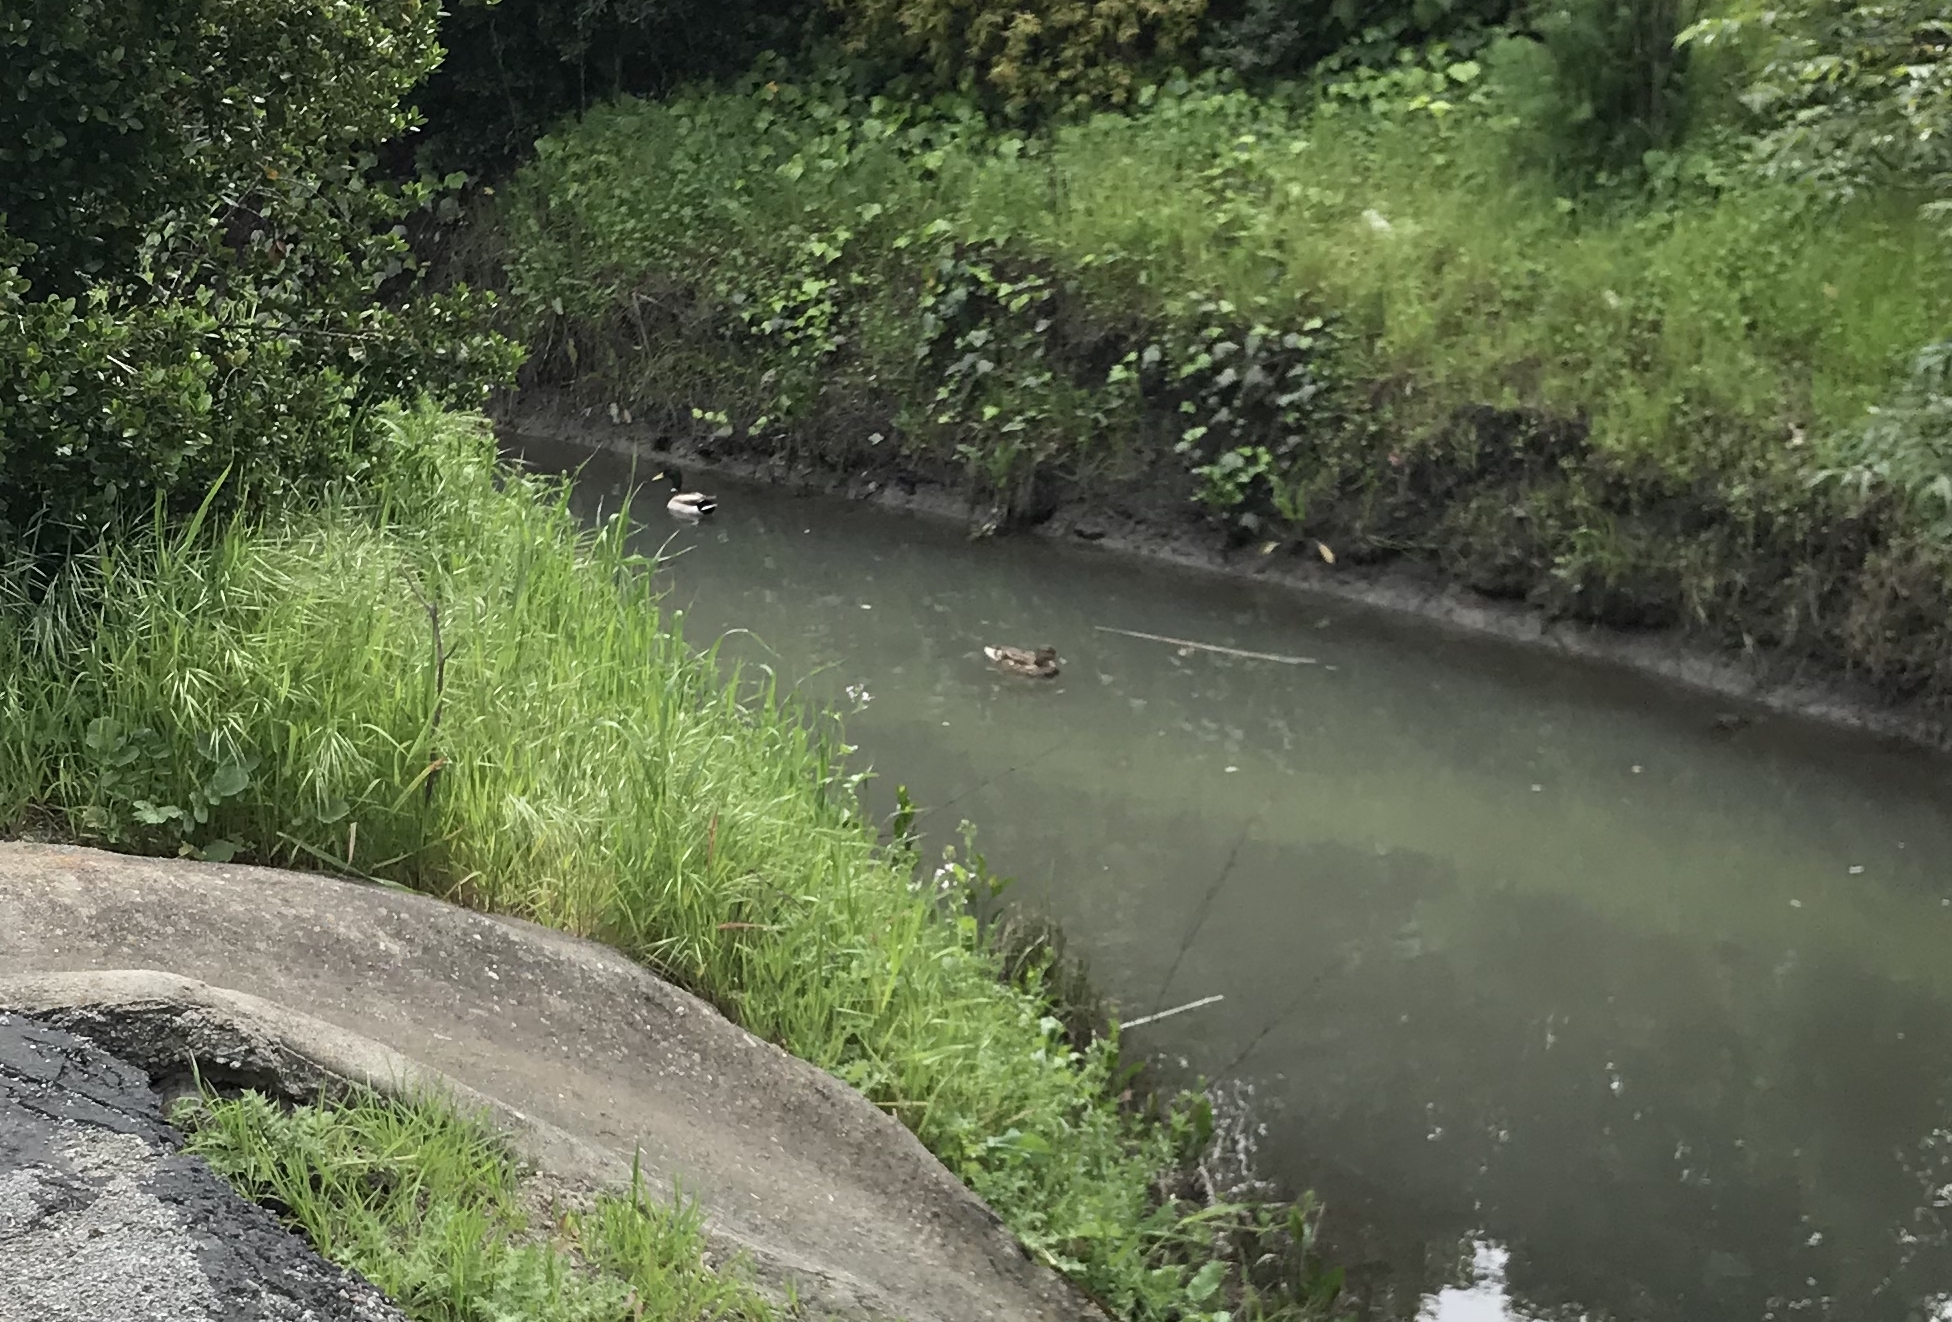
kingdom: Animalia
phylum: Chordata
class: Aves
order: Anseriformes
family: Anatidae
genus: Anas
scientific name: Anas platyrhynchos
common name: Mallard
